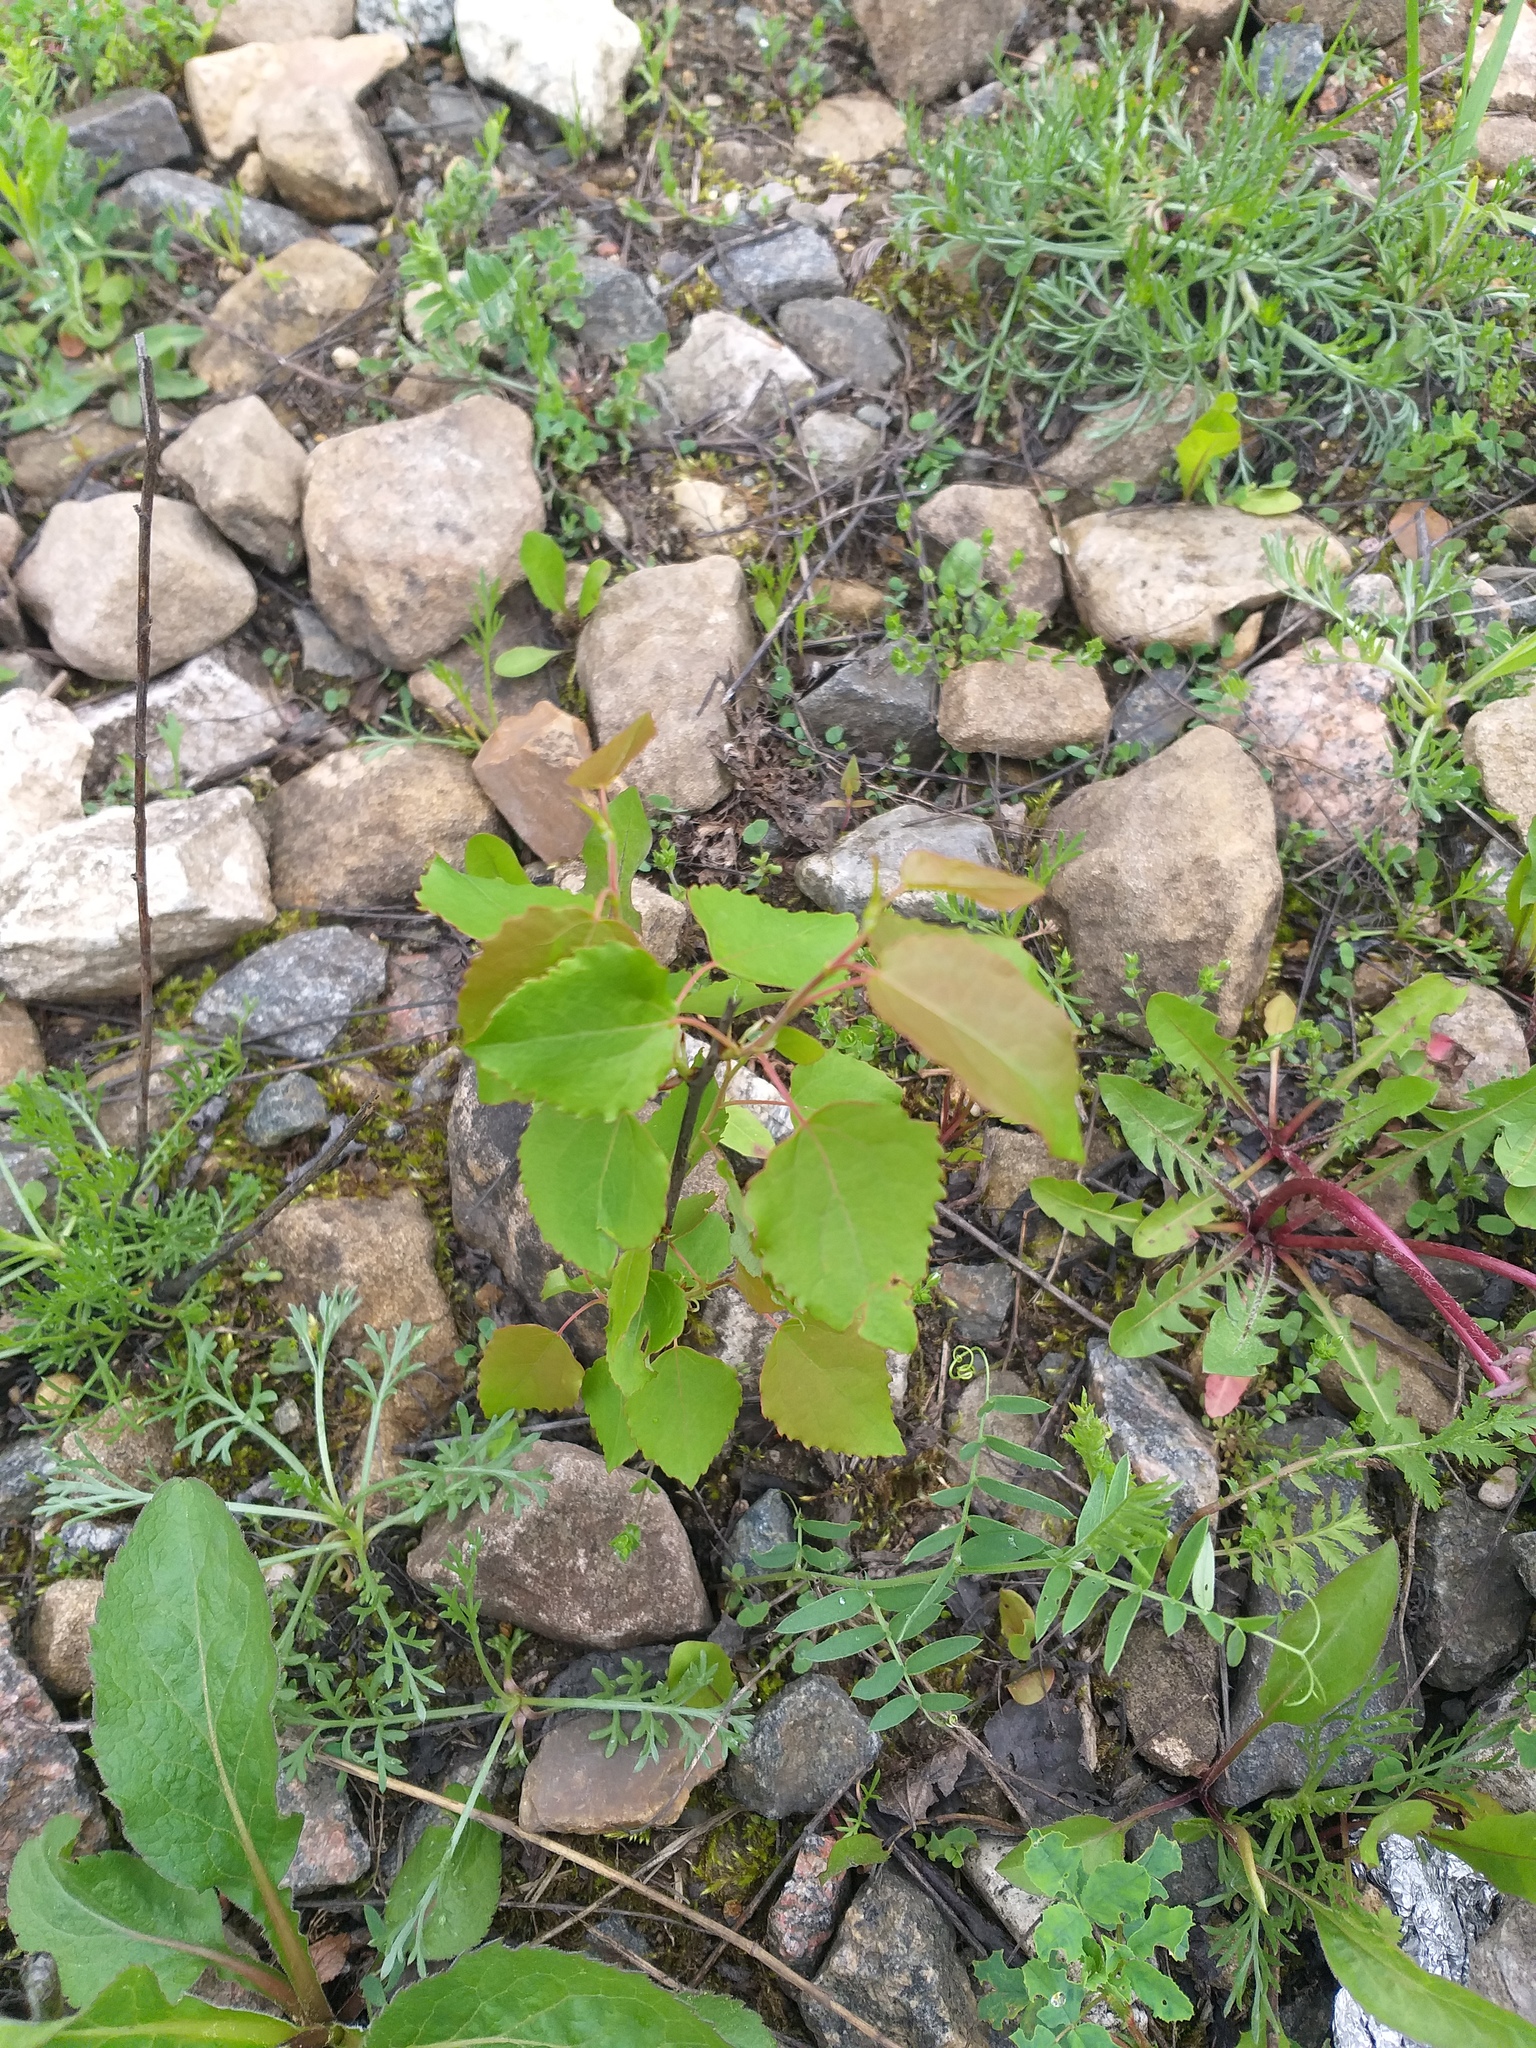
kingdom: Plantae
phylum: Tracheophyta
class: Magnoliopsida
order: Malpighiales
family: Salicaceae
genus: Populus
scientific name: Populus tremula
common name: European aspen
